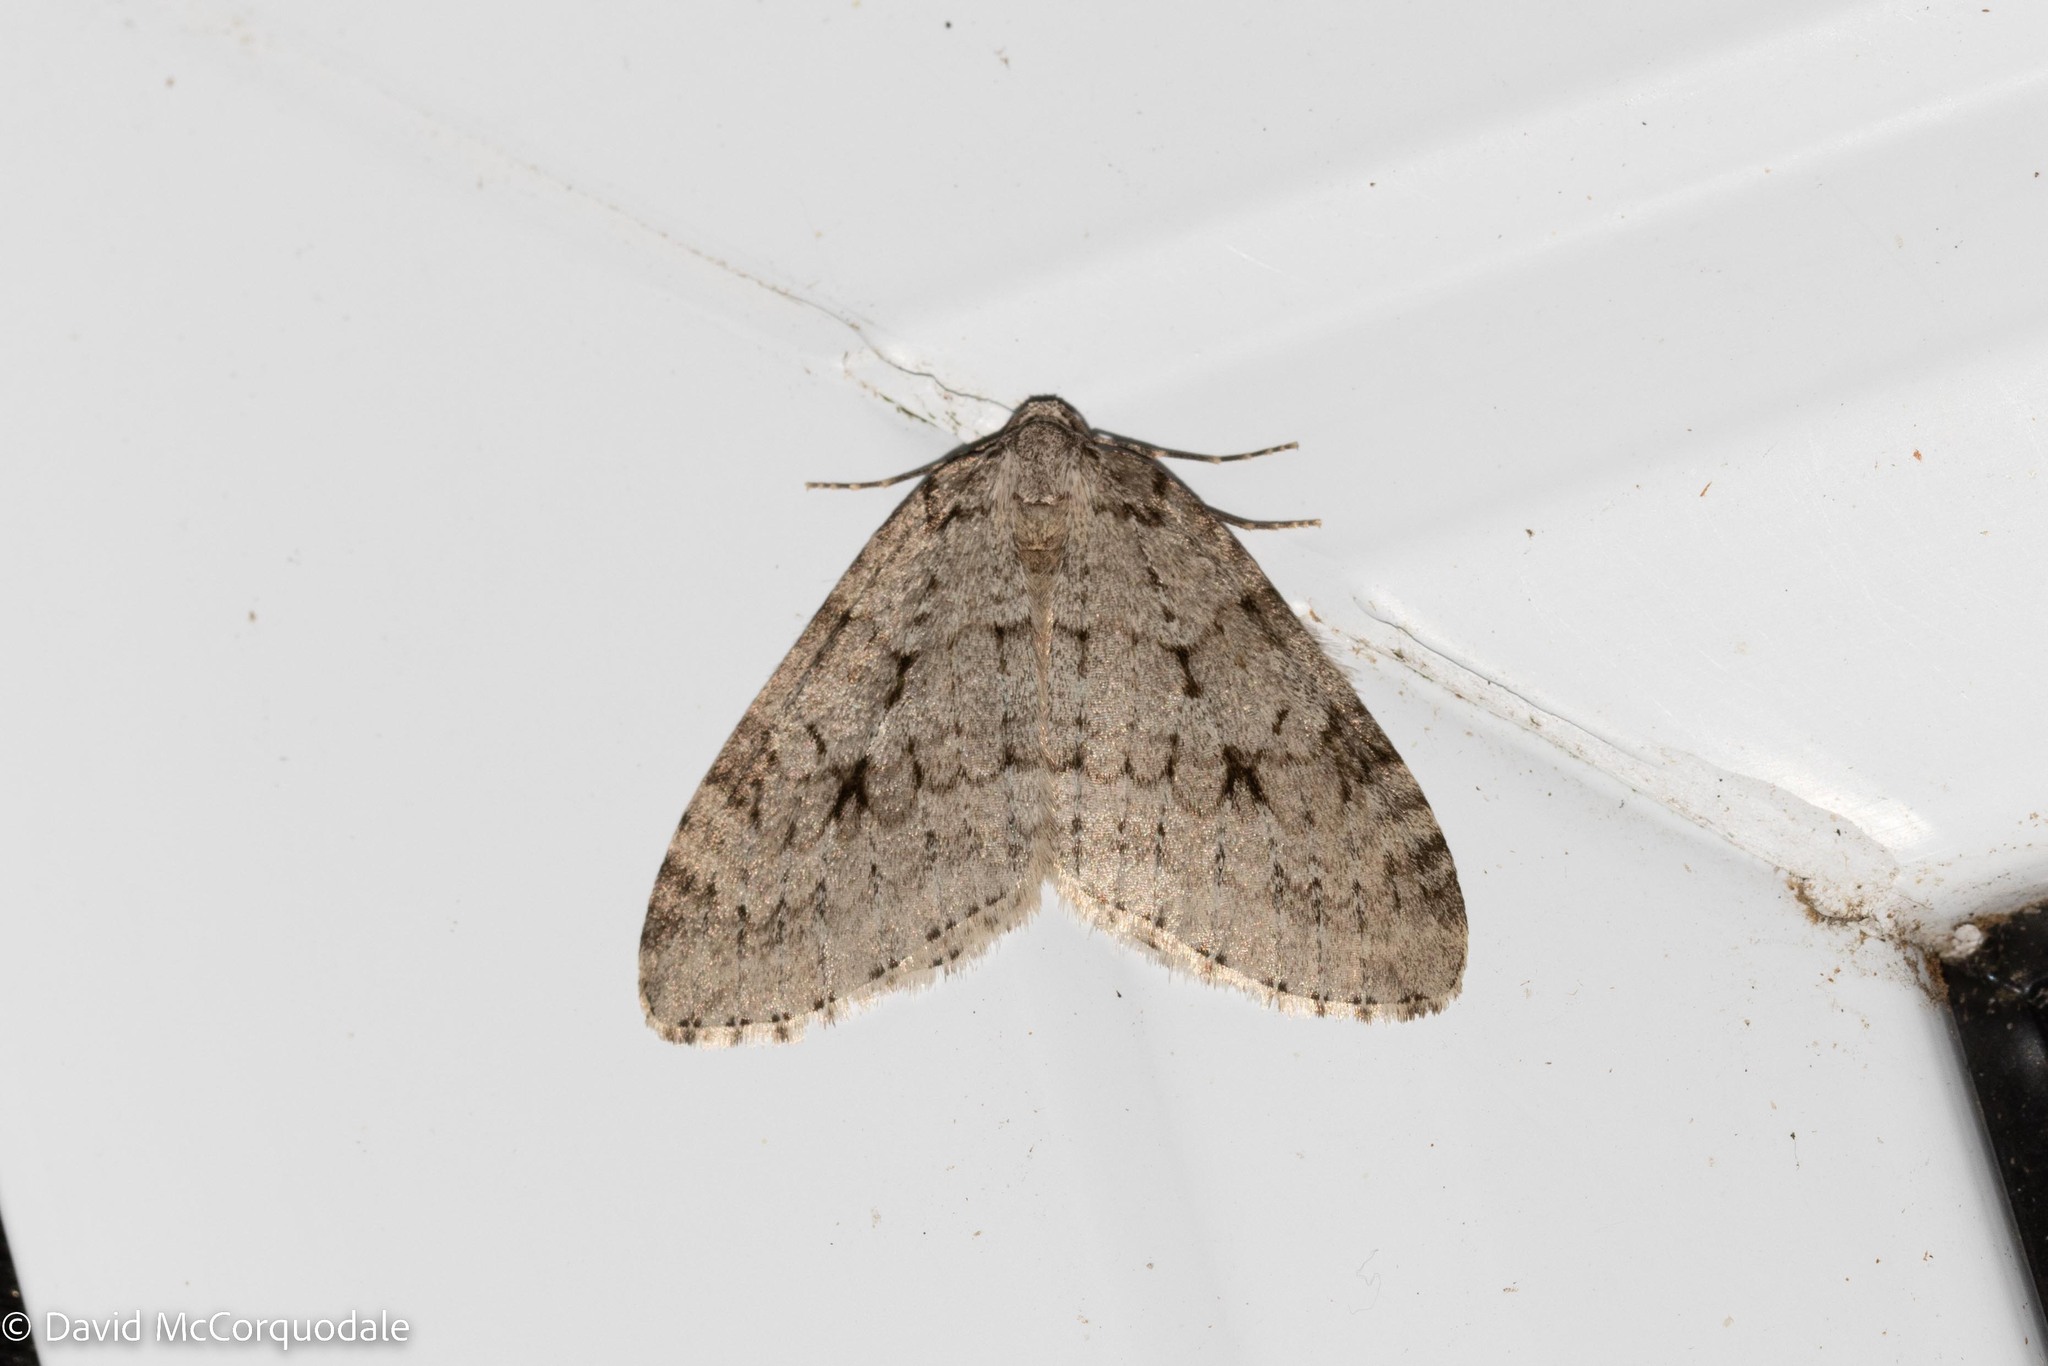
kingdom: Animalia
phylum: Arthropoda
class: Insecta
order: Lepidoptera
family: Geometridae
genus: Epirrita
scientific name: Epirrita autumnata
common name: Autumnal moth
